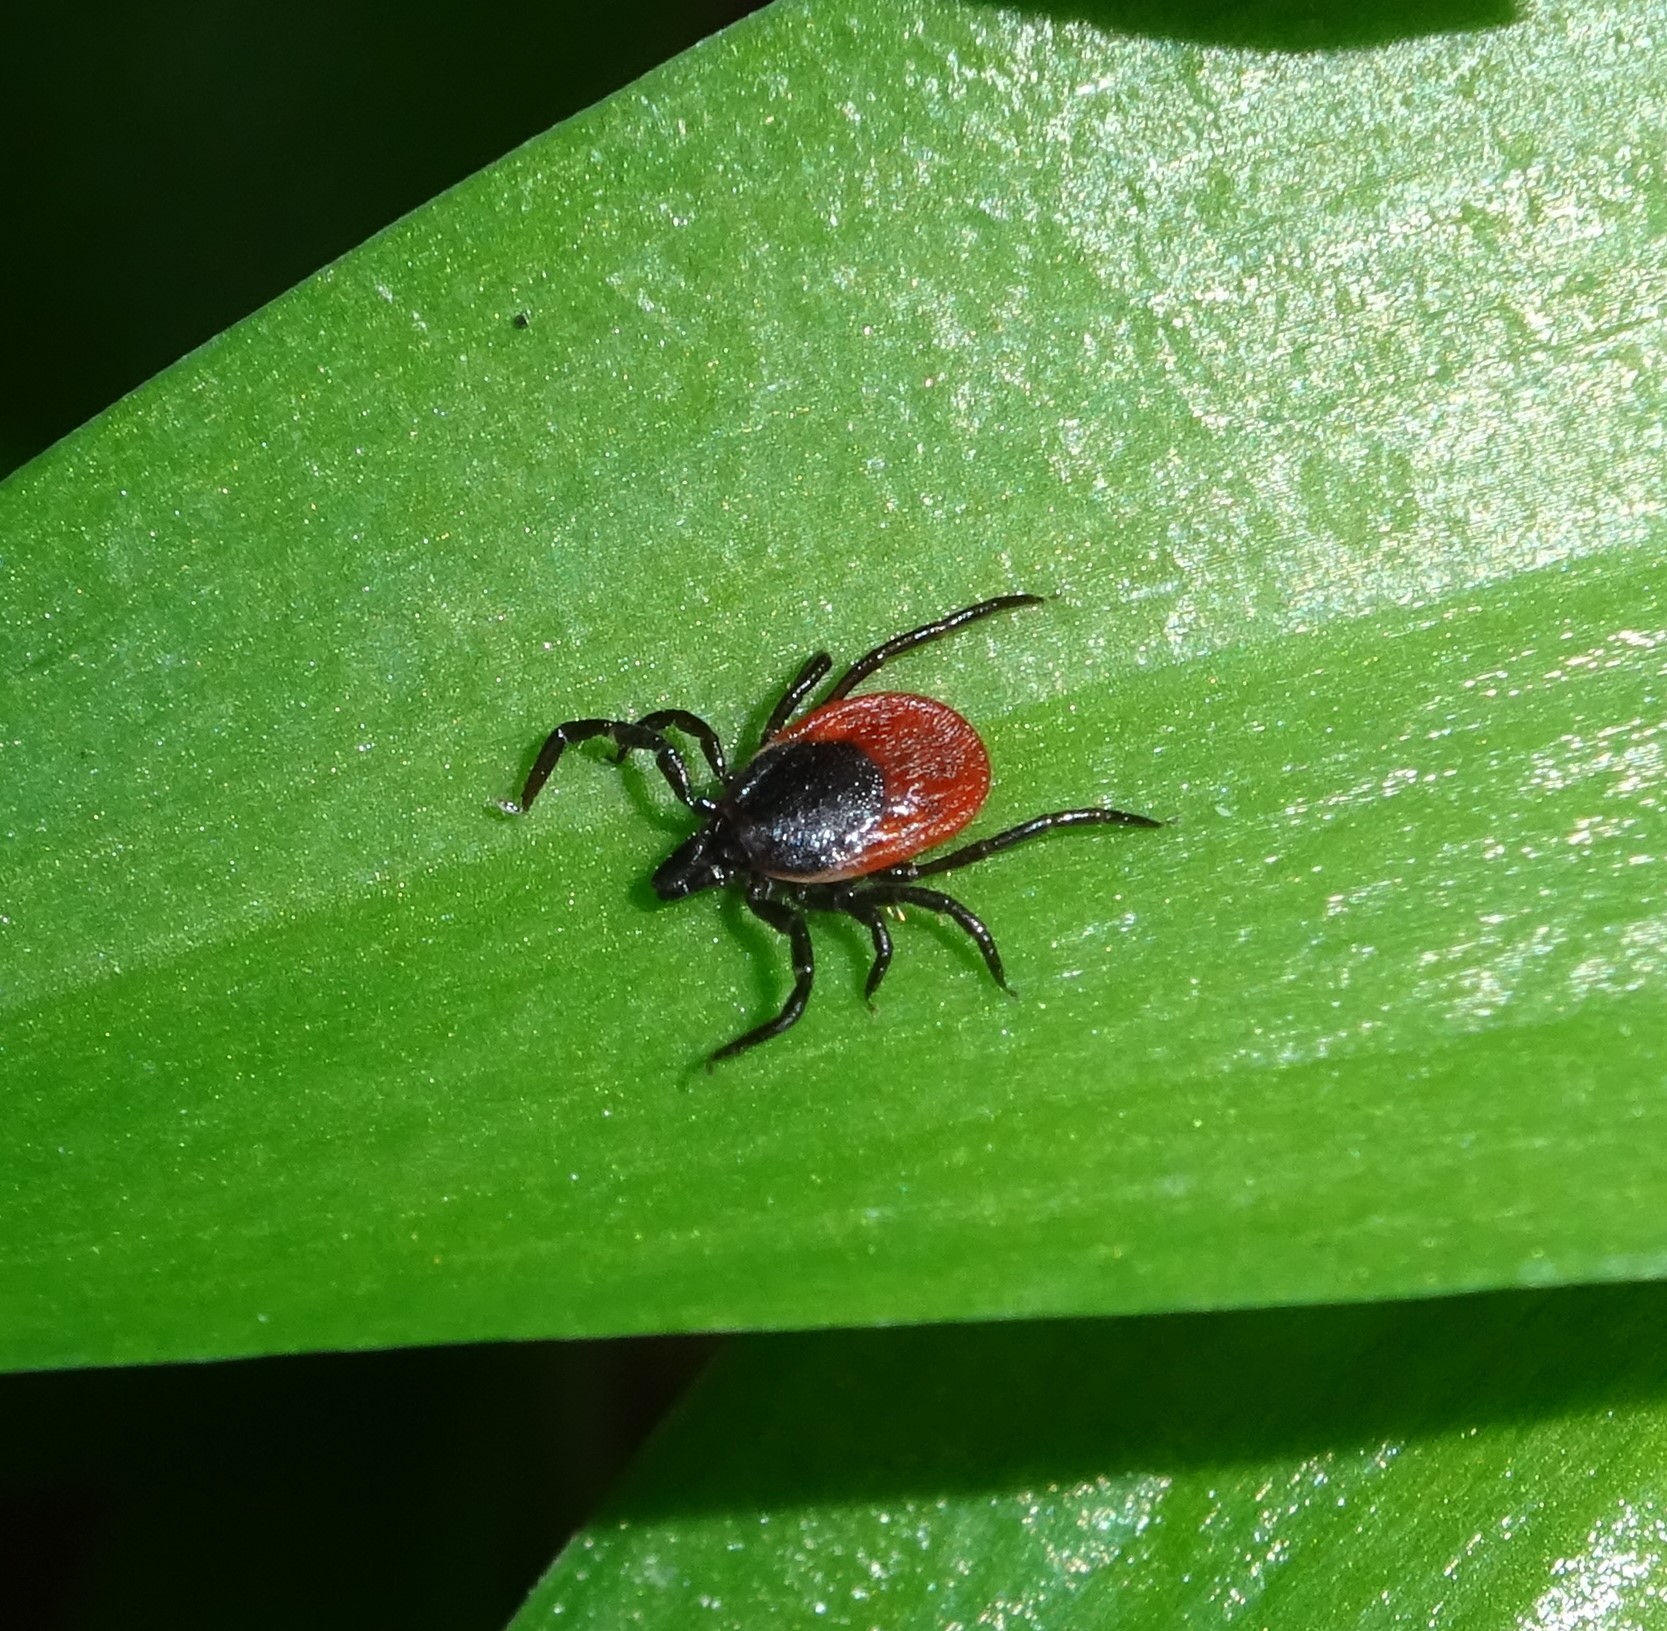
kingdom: Animalia
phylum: Arthropoda
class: Arachnida
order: Ixodida
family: Ixodidae
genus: Ixodes
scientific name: Ixodes ricinus
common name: Castor bean tick
